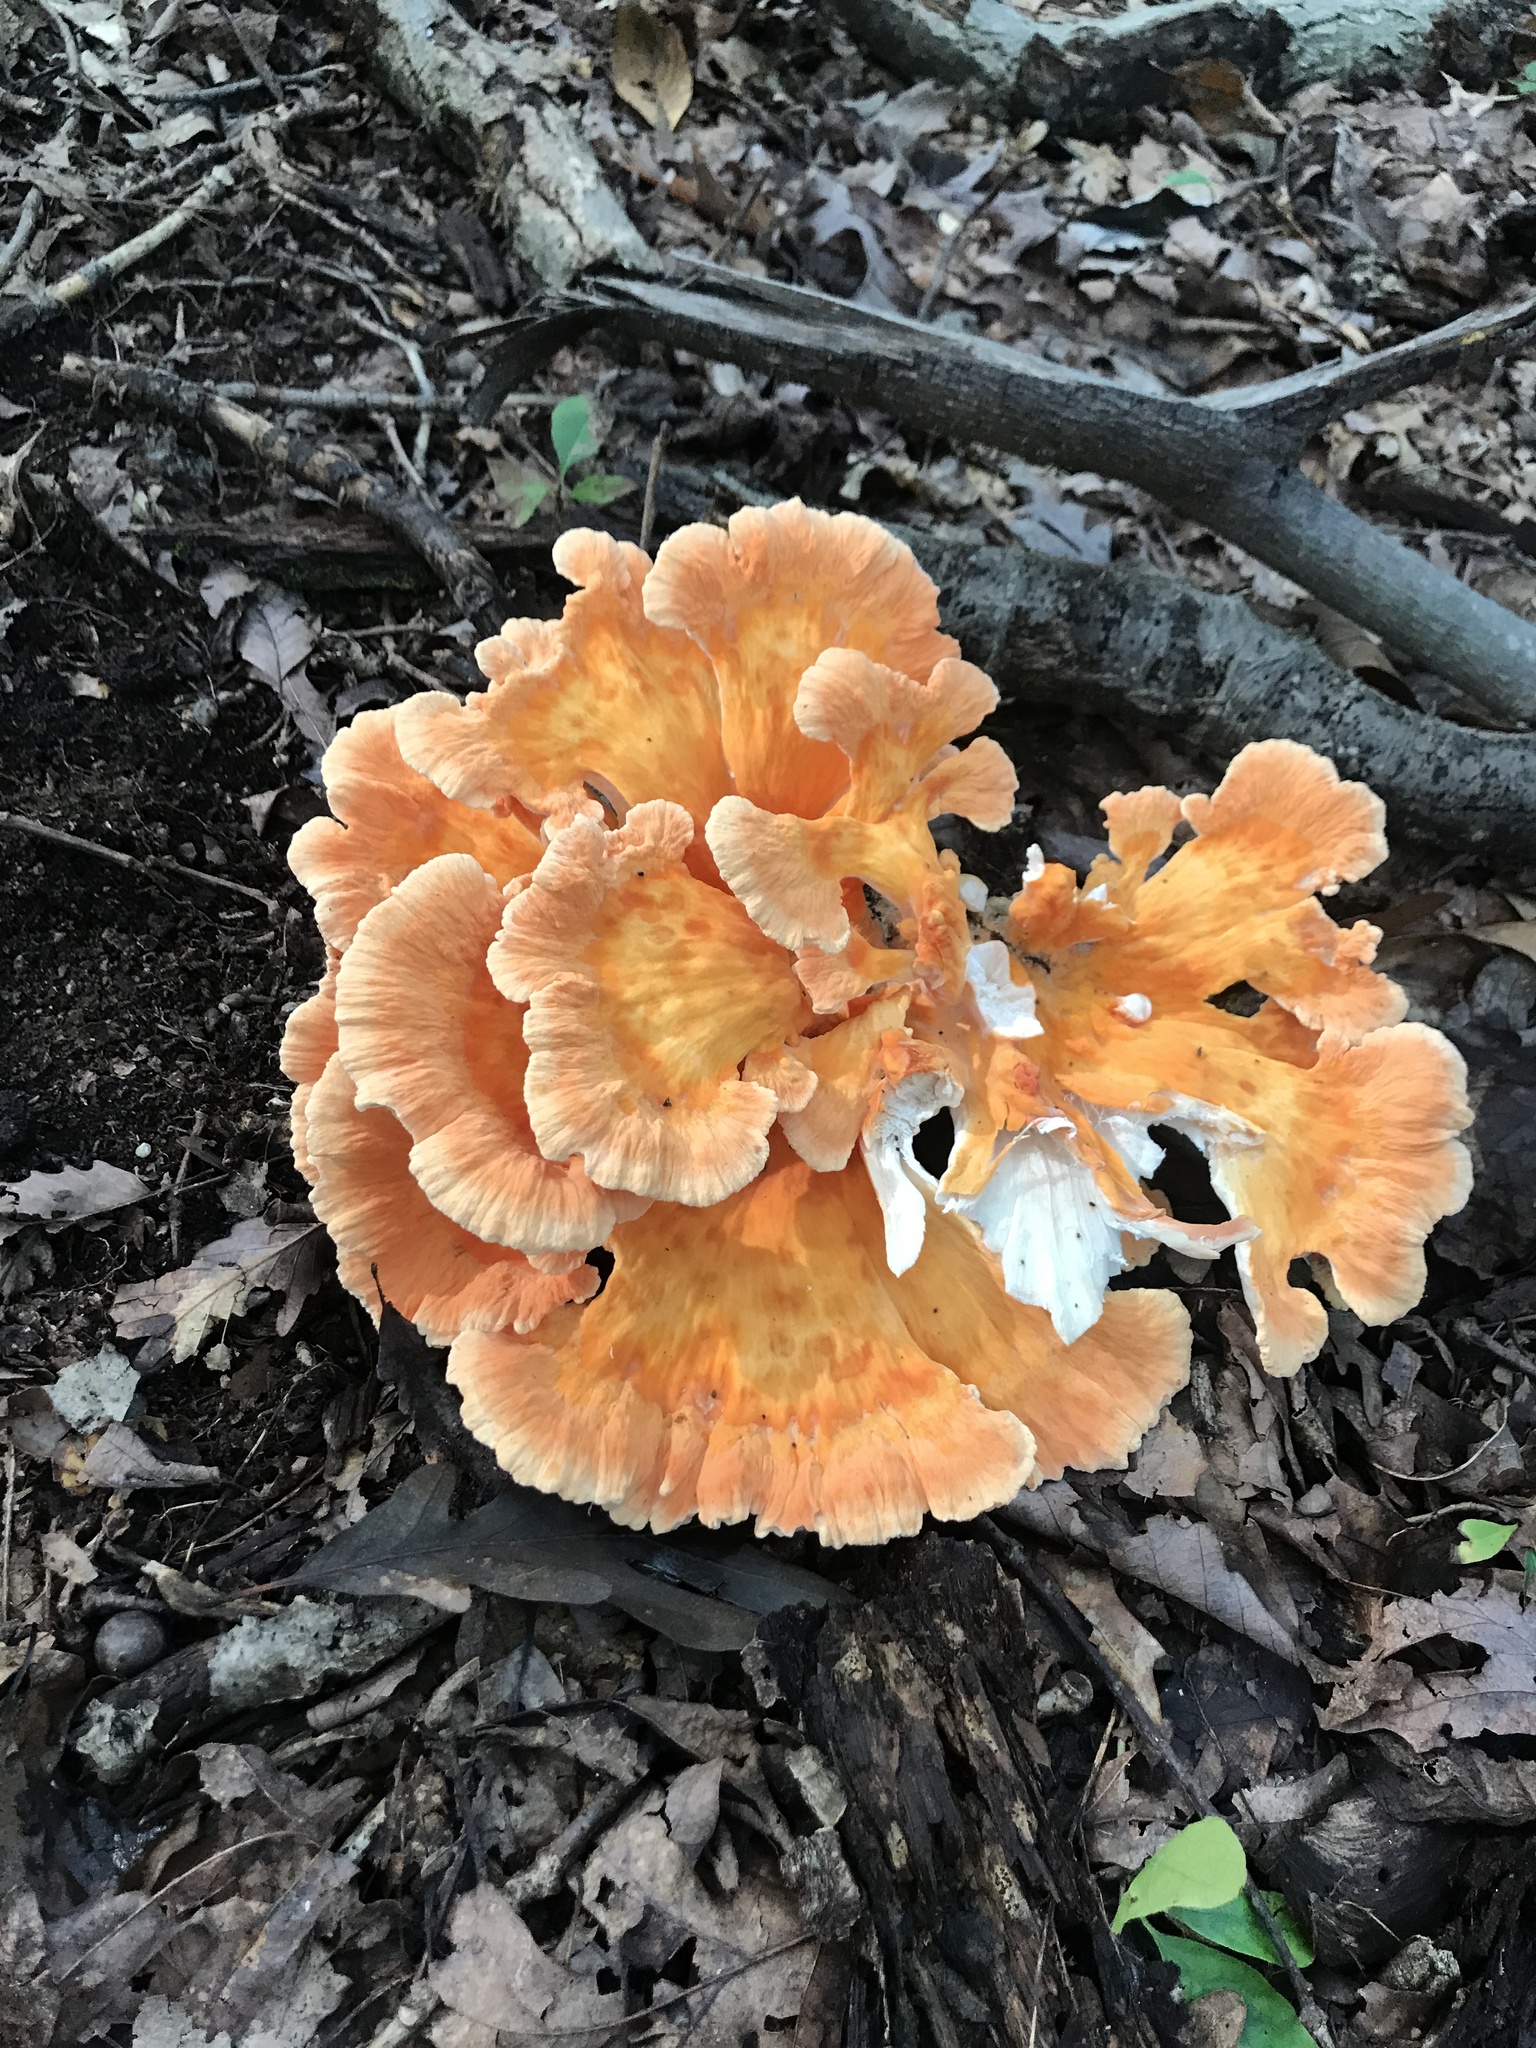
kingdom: Fungi
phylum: Basidiomycota
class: Agaricomycetes
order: Polyporales
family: Laetiporaceae
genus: Laetiporus
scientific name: Laetiporus sulphureus
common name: Chicken of the woods
